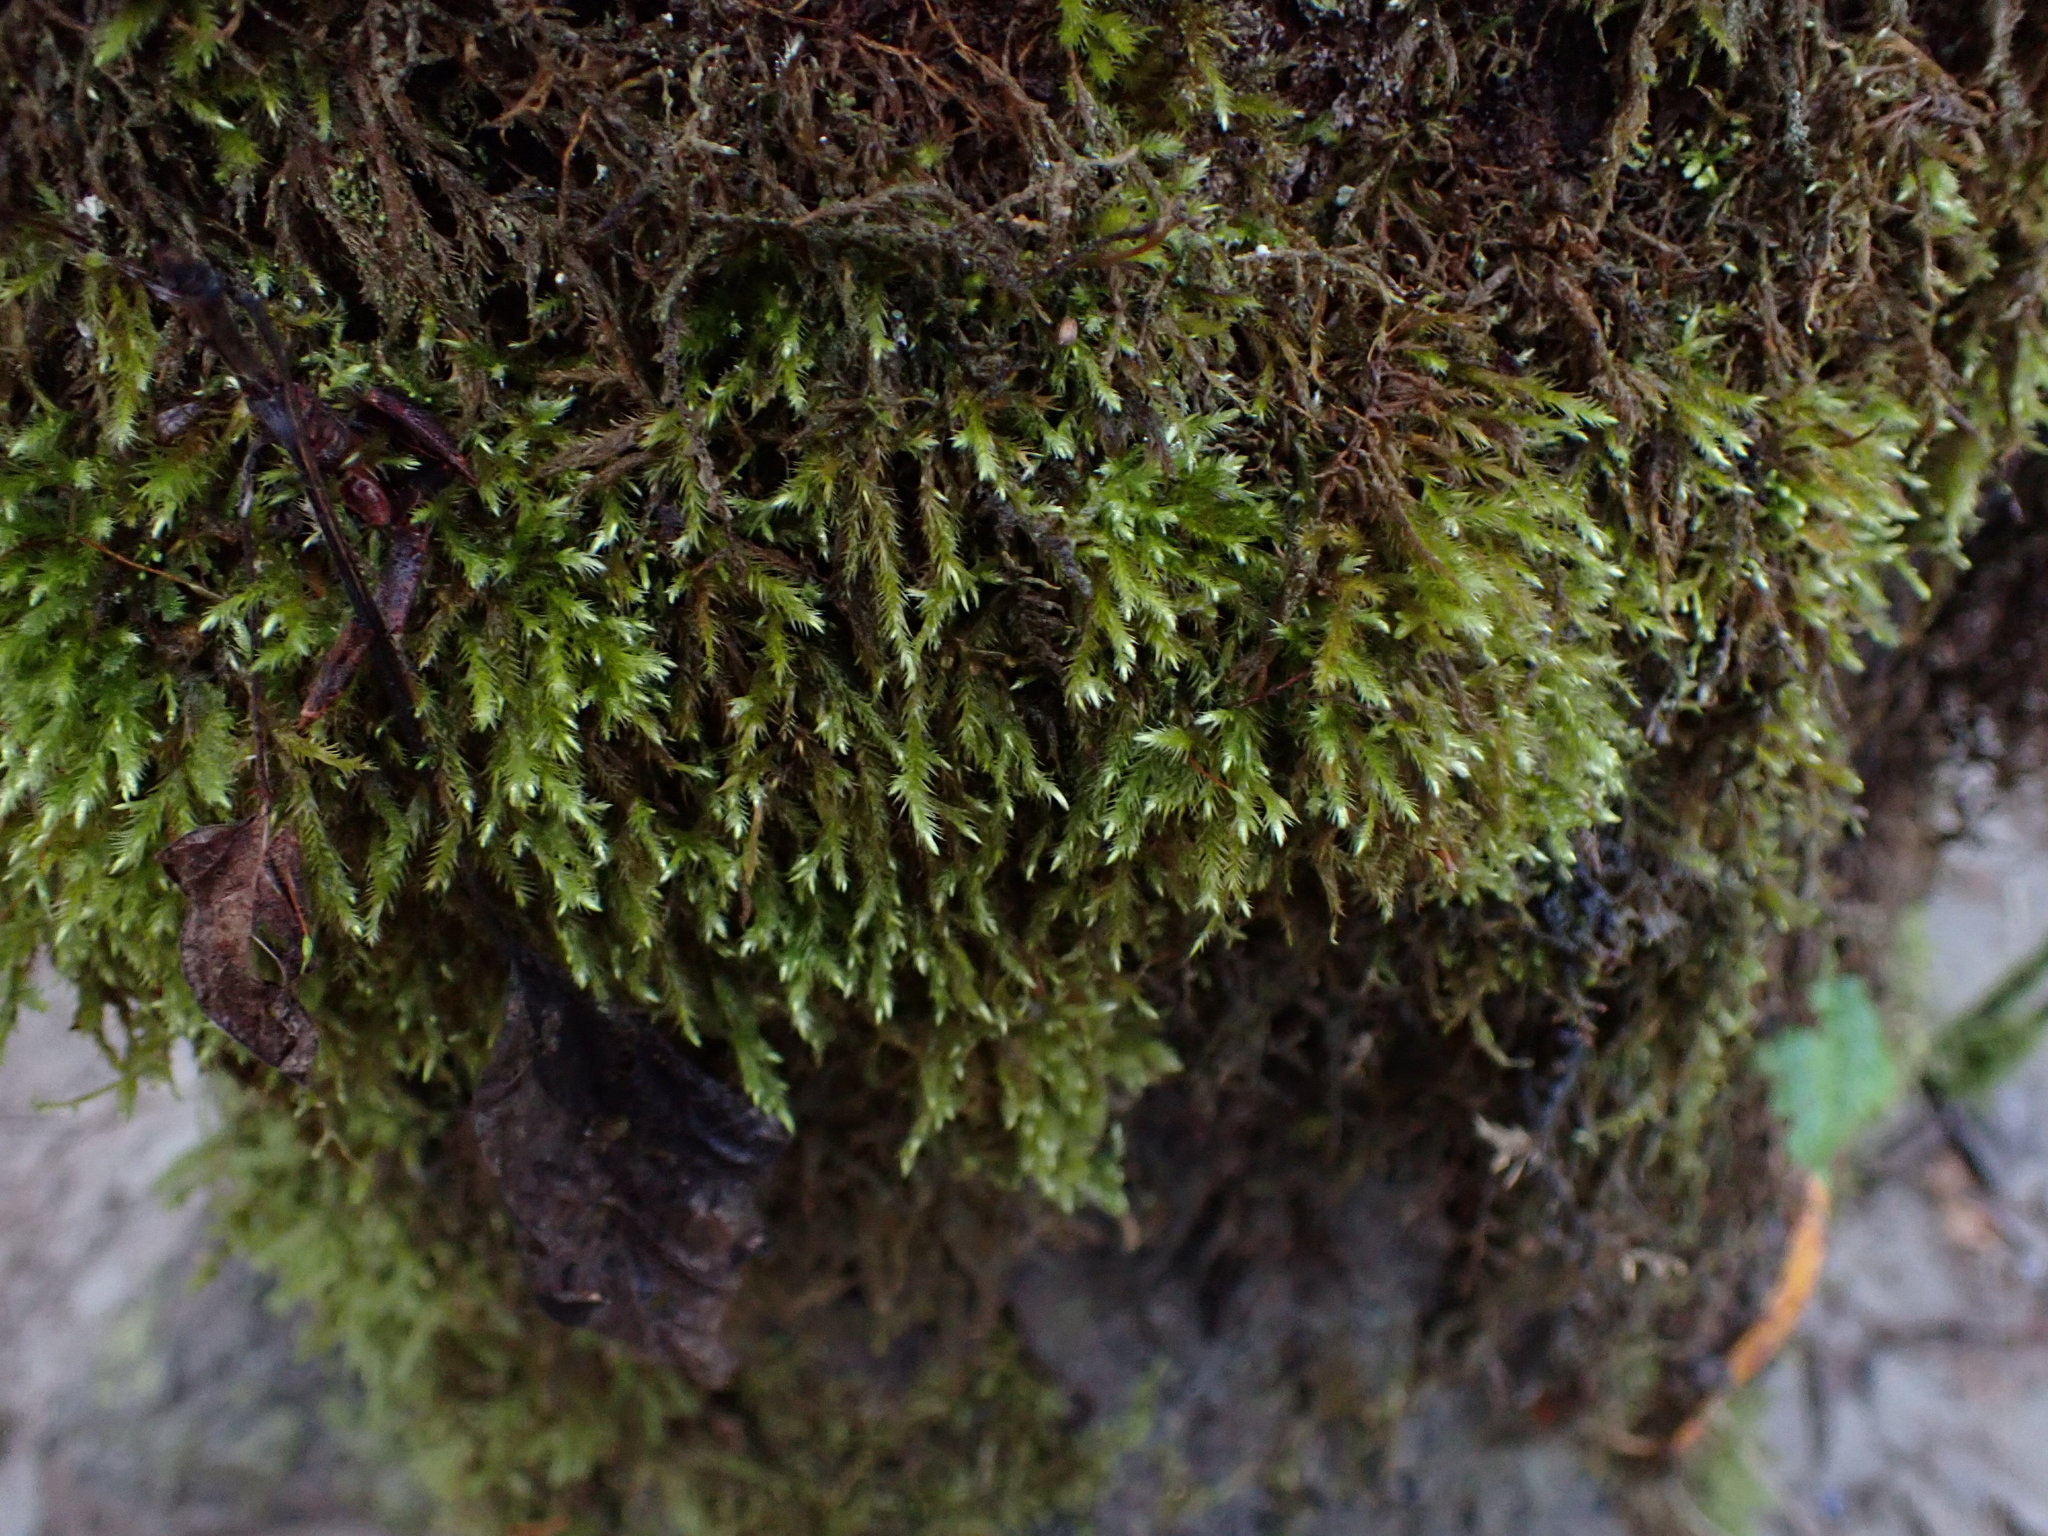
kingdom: Plantae
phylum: Bryophyta
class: Bryopsida
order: Hypnales
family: Brachytheciaceae
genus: Homalothecium
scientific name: Homalothecium fulgescens
